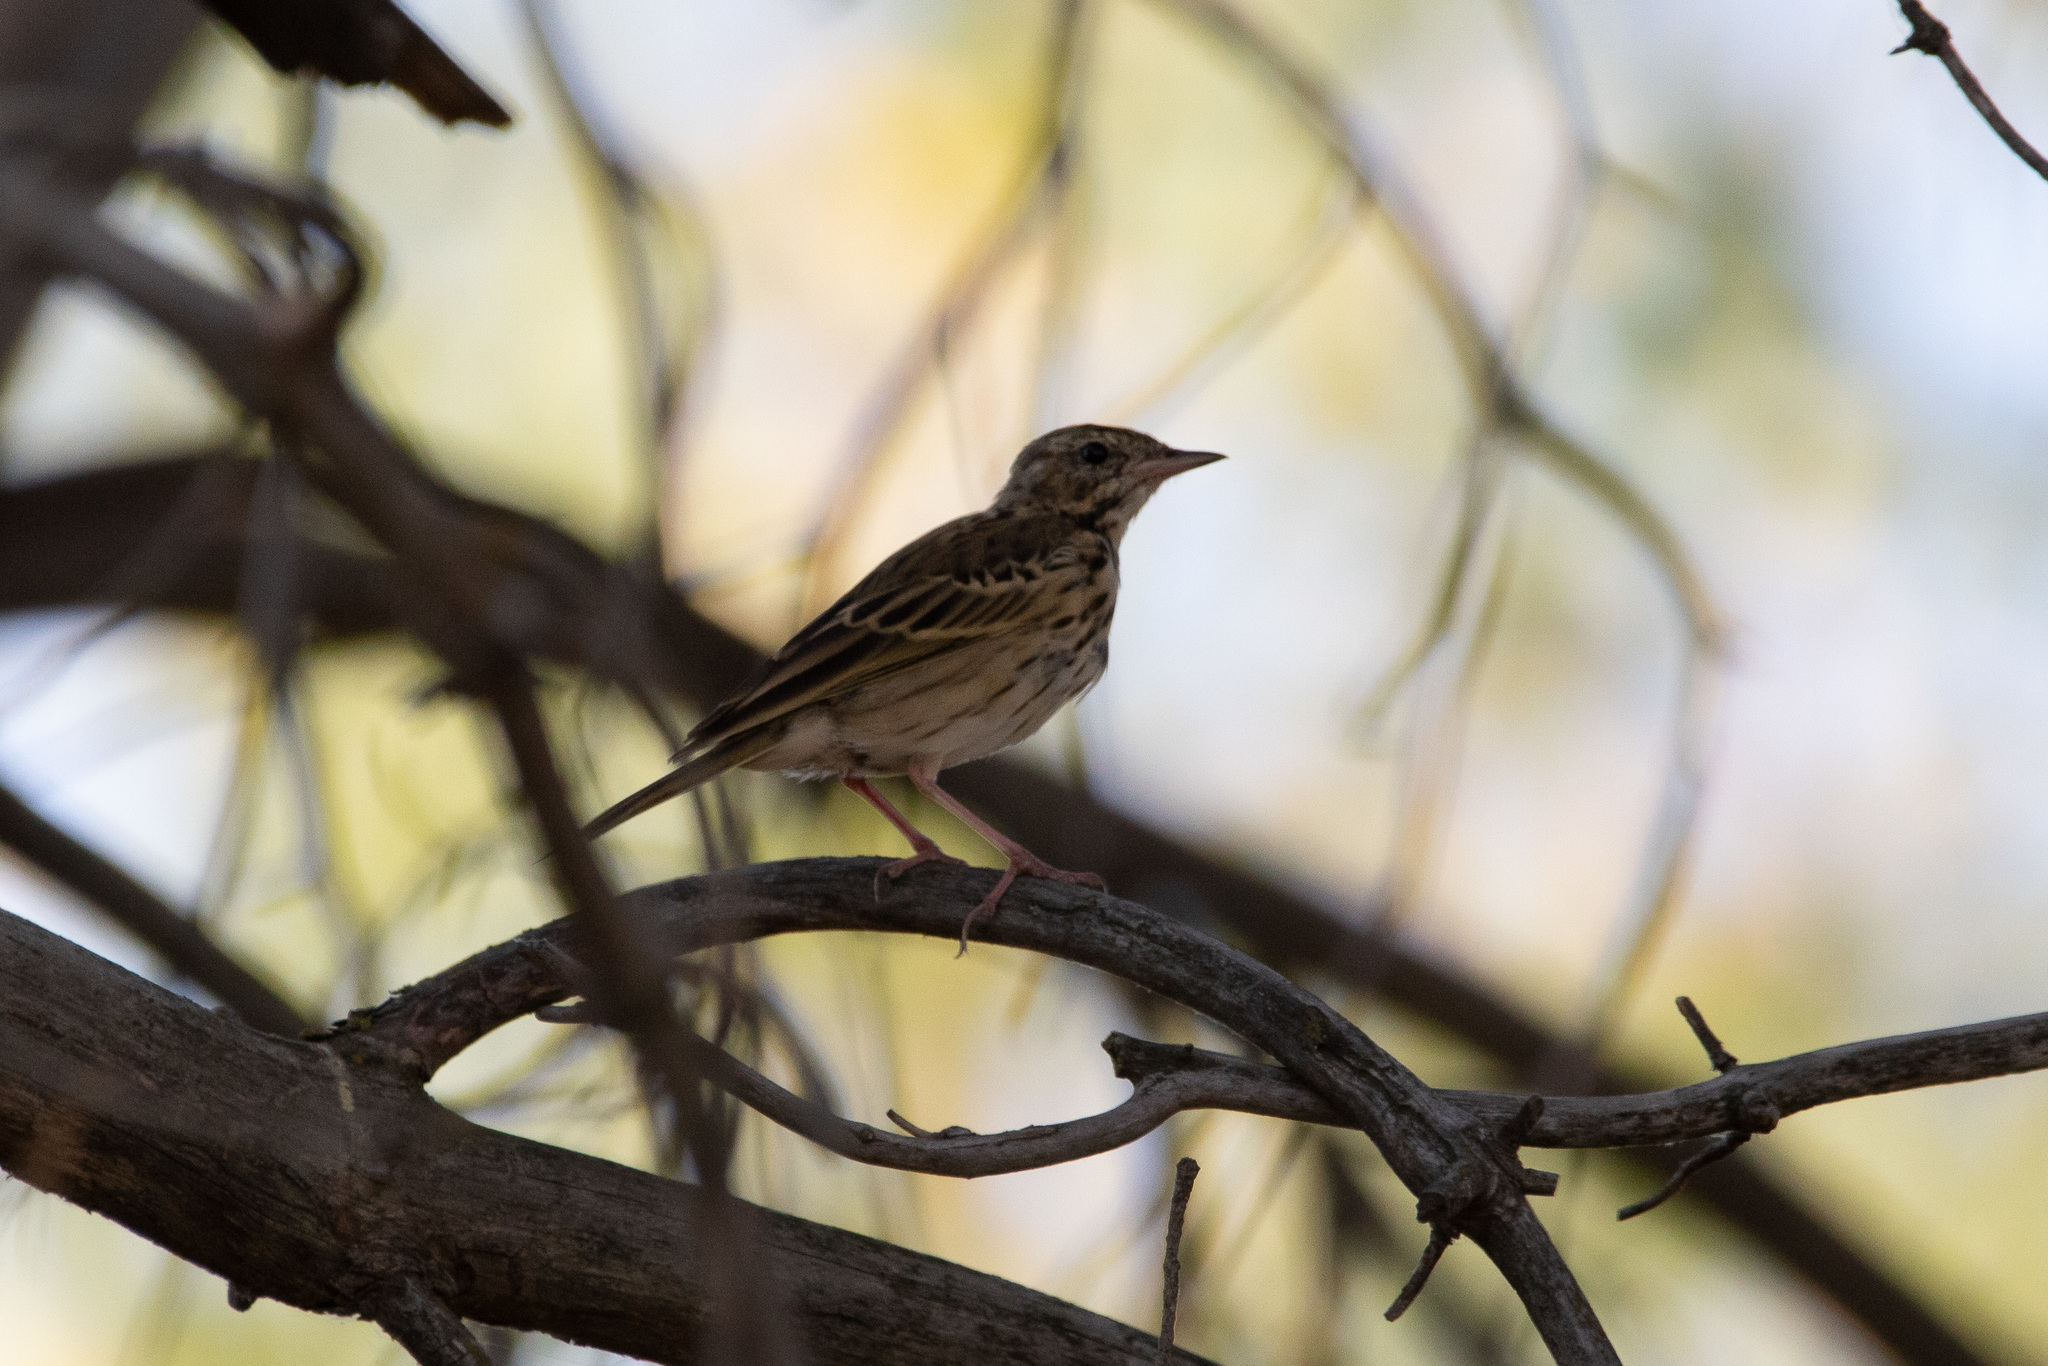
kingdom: Animalia
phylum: Chordata
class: Aves
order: Passeriformes
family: Motacillidae
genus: Anthus
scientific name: Anthus trivialis
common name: Tree pipit
